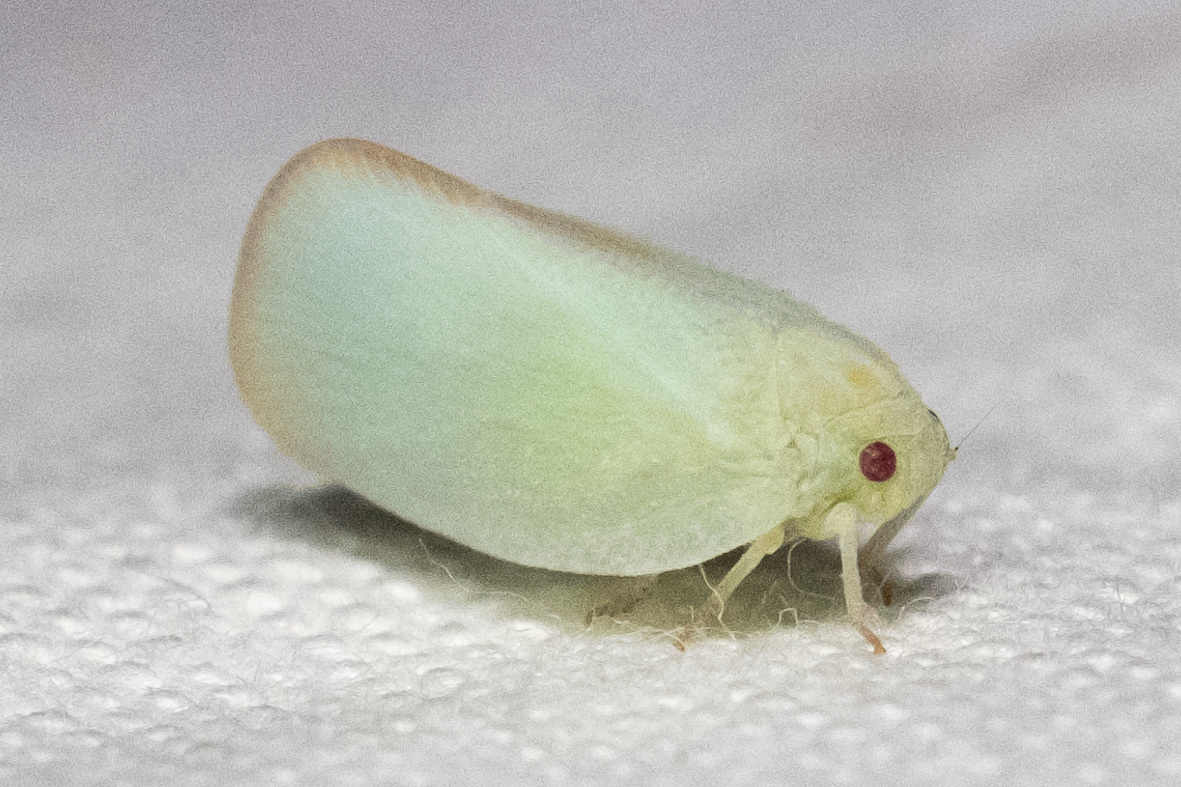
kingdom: Animalia
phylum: Arthropoda
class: Insecta
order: Hemiptera
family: Flatidae
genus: Ormenoides
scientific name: Ormenoides venusta
